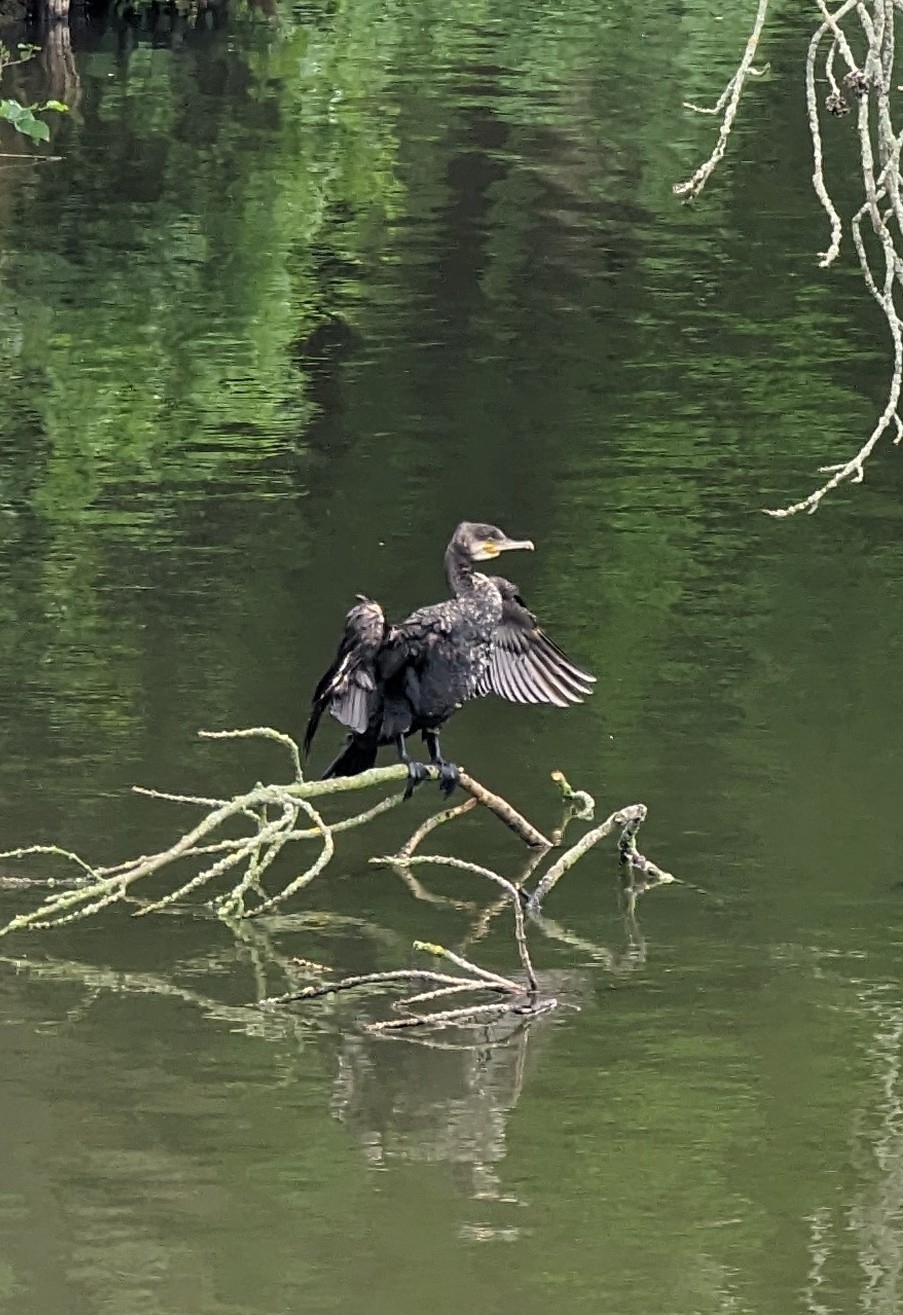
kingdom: Animalia
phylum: Chordata
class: Aves
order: Suliformes
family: Phalacrocoracidae
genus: Phalacrocorax
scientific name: Phalacrocorax carbo
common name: Great cormorant
